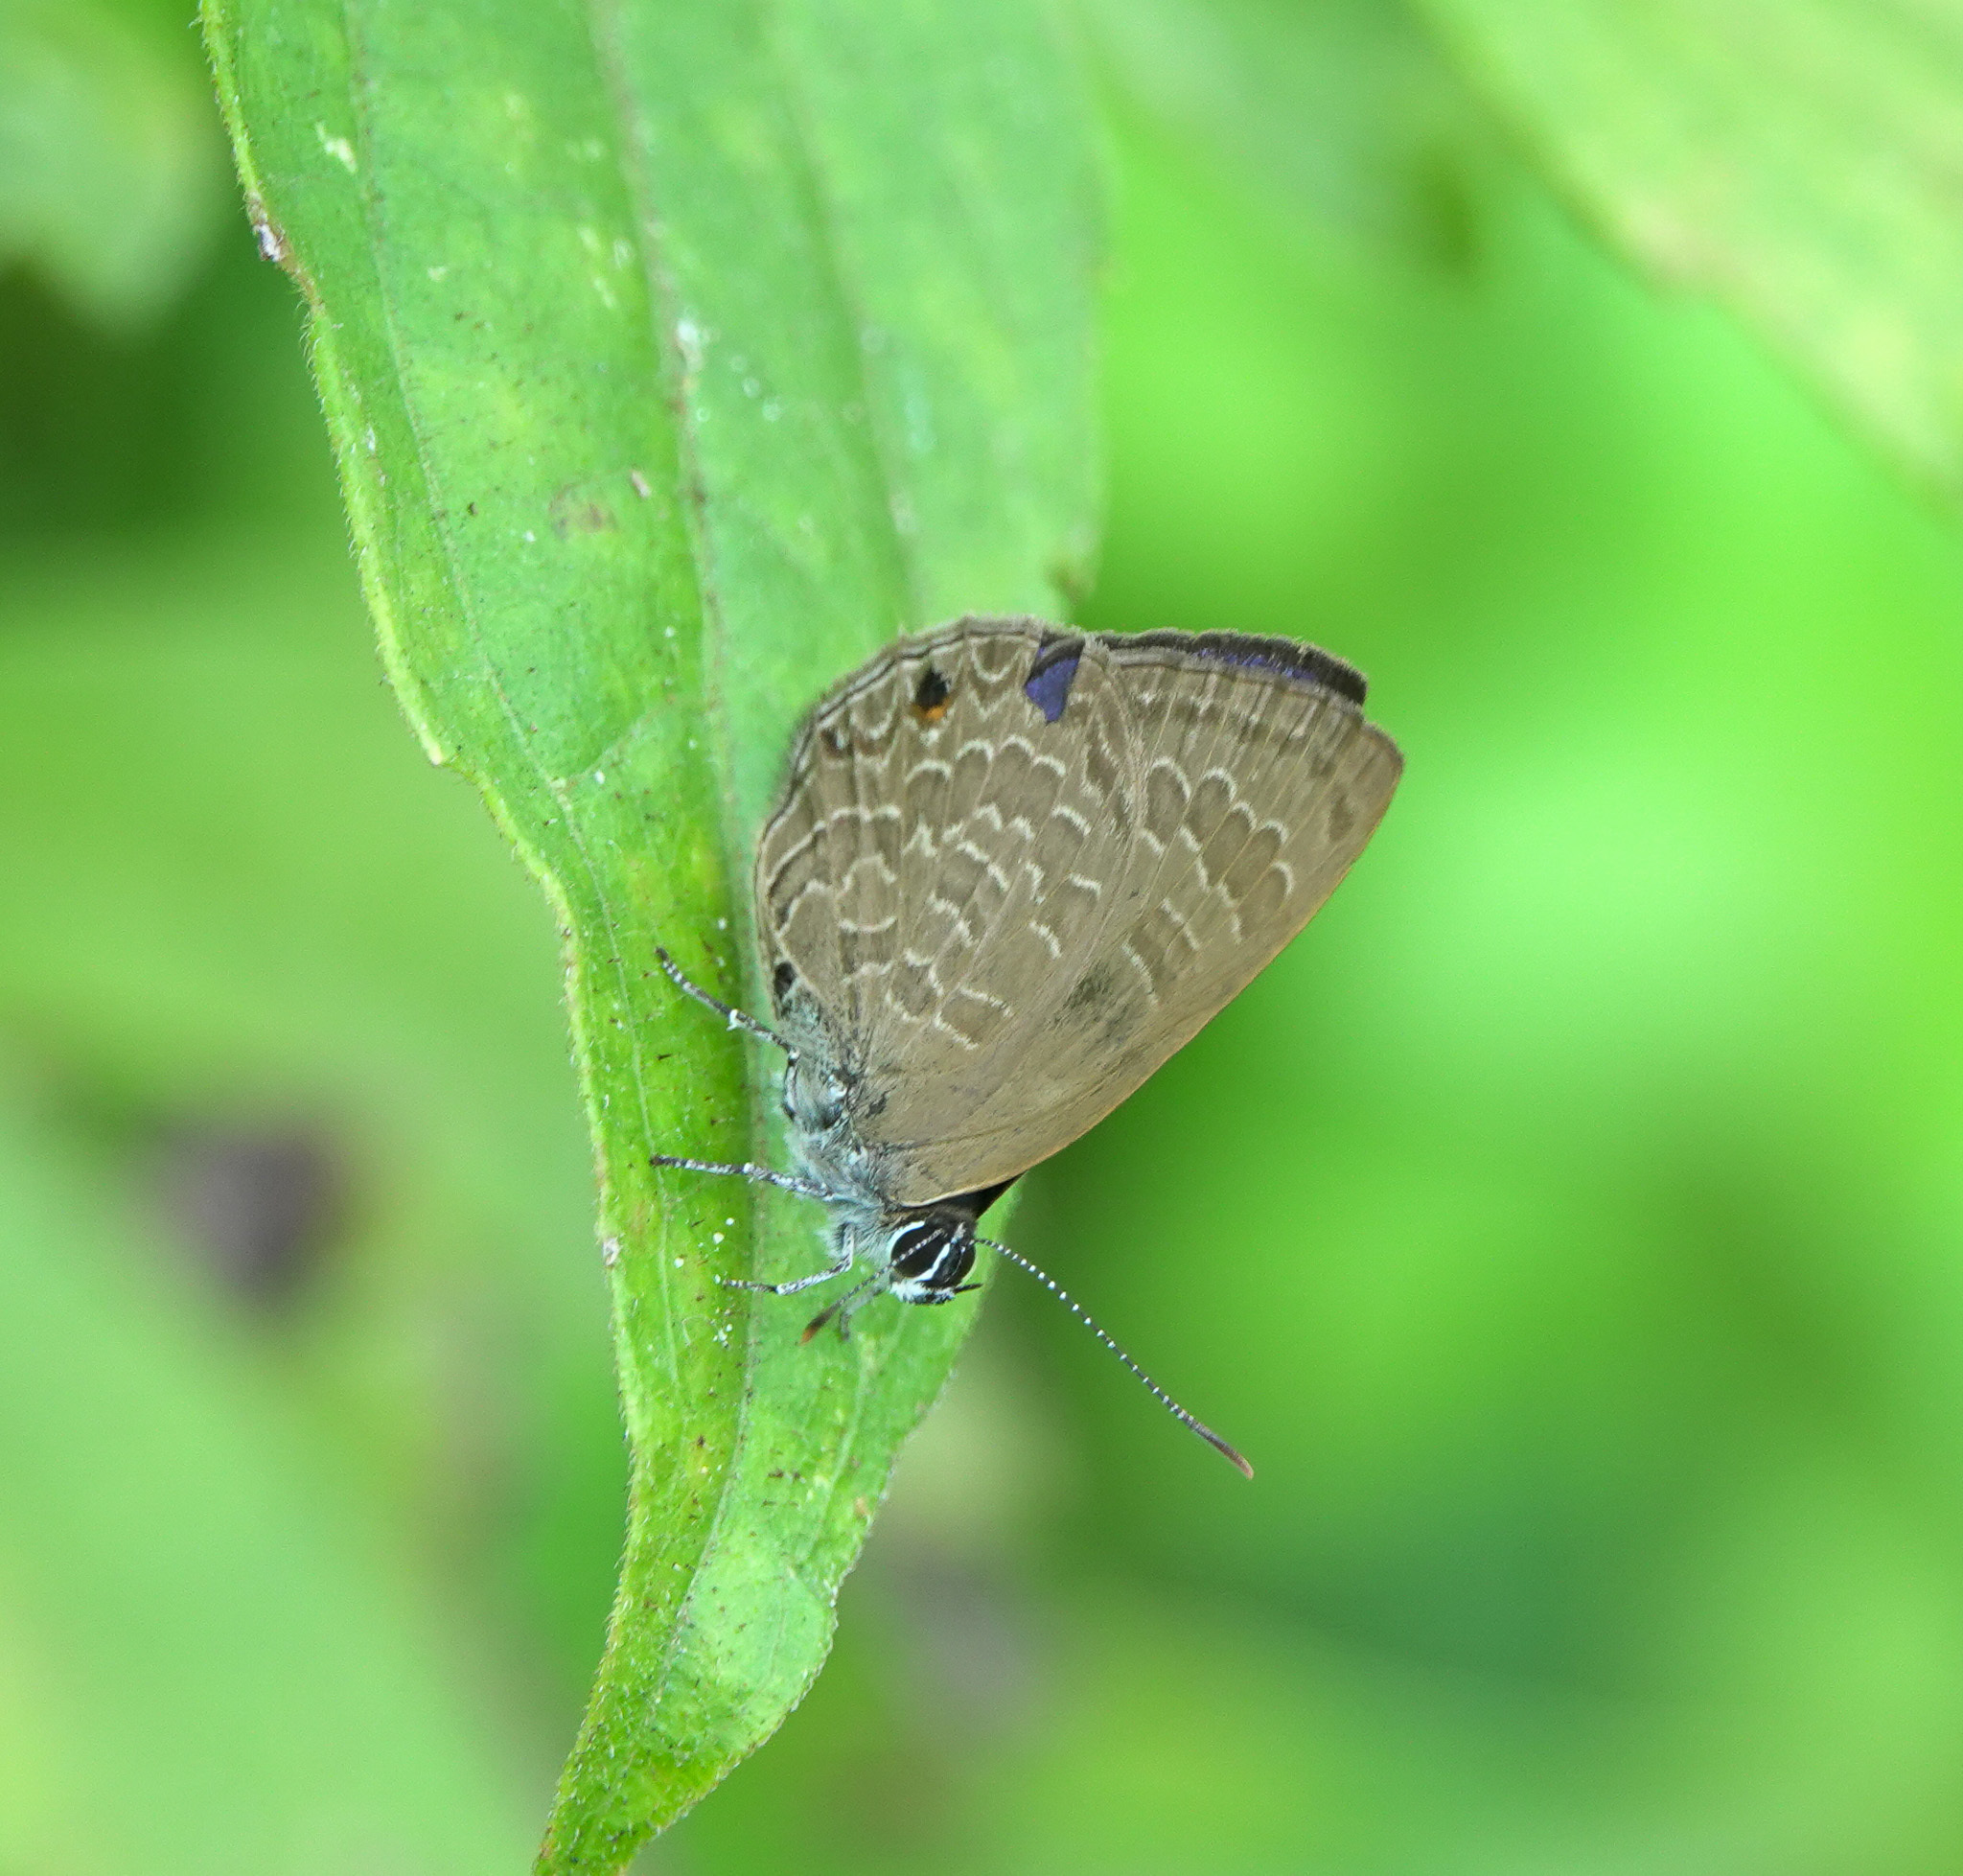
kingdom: Animalia
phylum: Arthropoda
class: Insecta
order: Lepidoptera
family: Lycaenidae
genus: Anthene
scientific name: Anthene emolus
